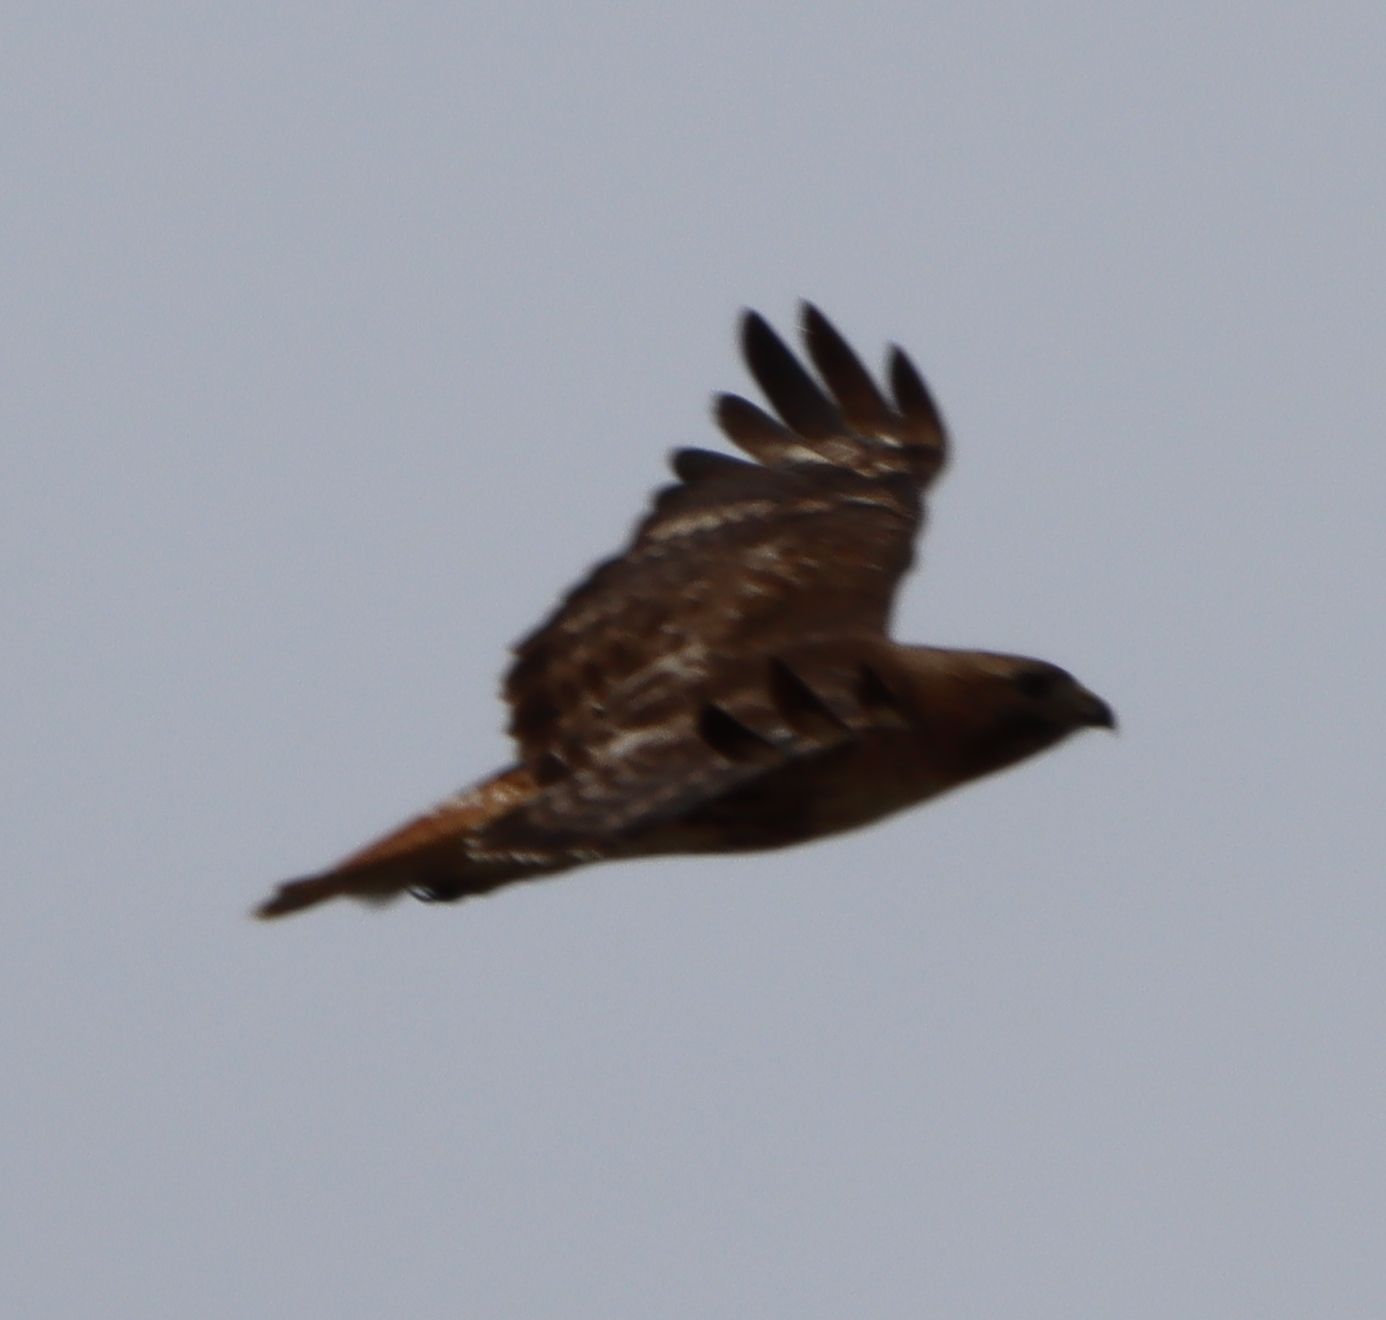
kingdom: Animalia
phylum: Chordata
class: Aves
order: Accipitriformes
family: Accipitridae
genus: Buteo
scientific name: Buteo jamaicensis
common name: Red-tailed hawk
